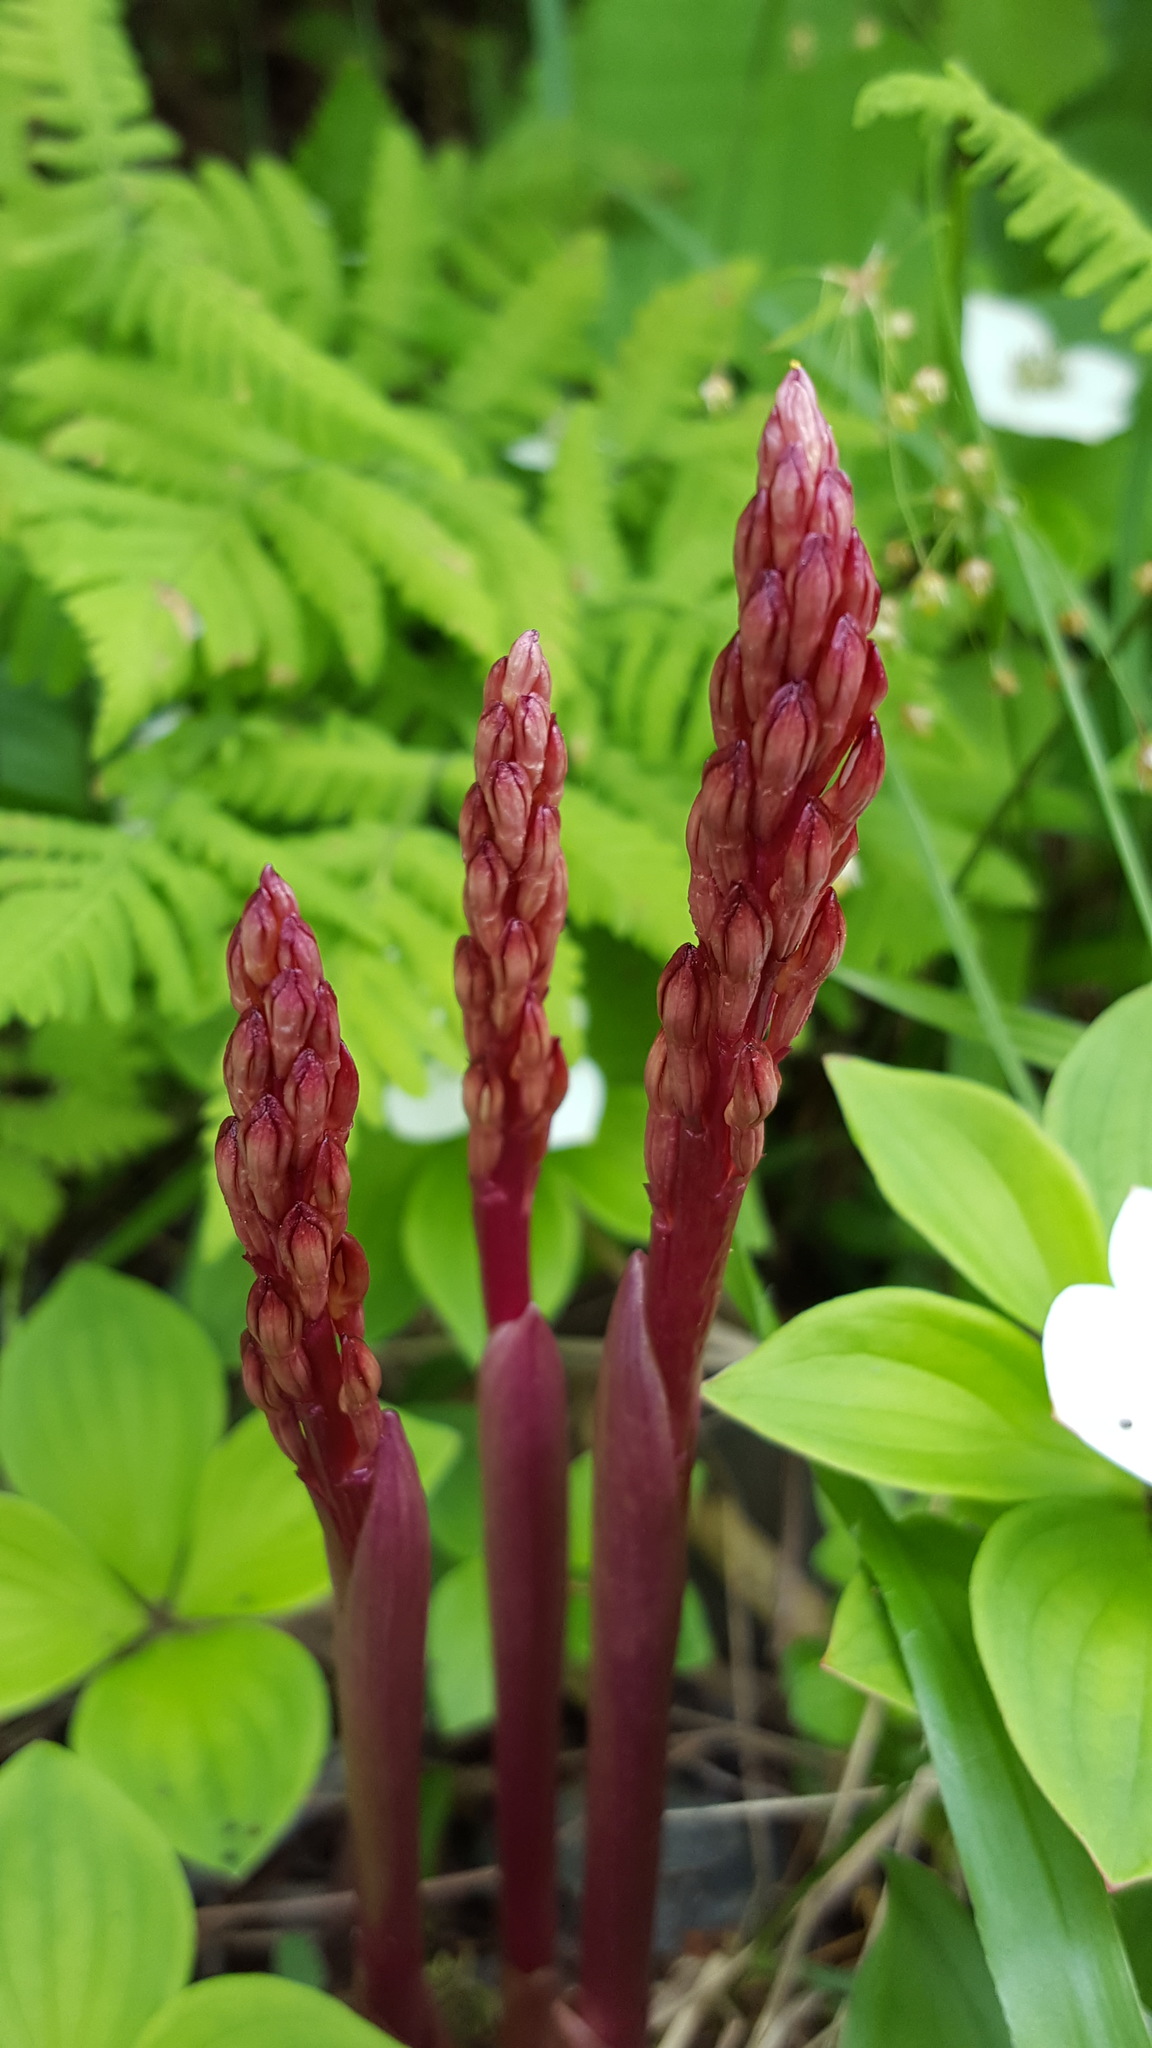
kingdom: Plantae
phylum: Tracheophyta
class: Liliopsida
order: Asparagales
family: Orchidaceae
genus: Corallorhiza
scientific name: Corallorhiza maculata
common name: Spotted coralroot
